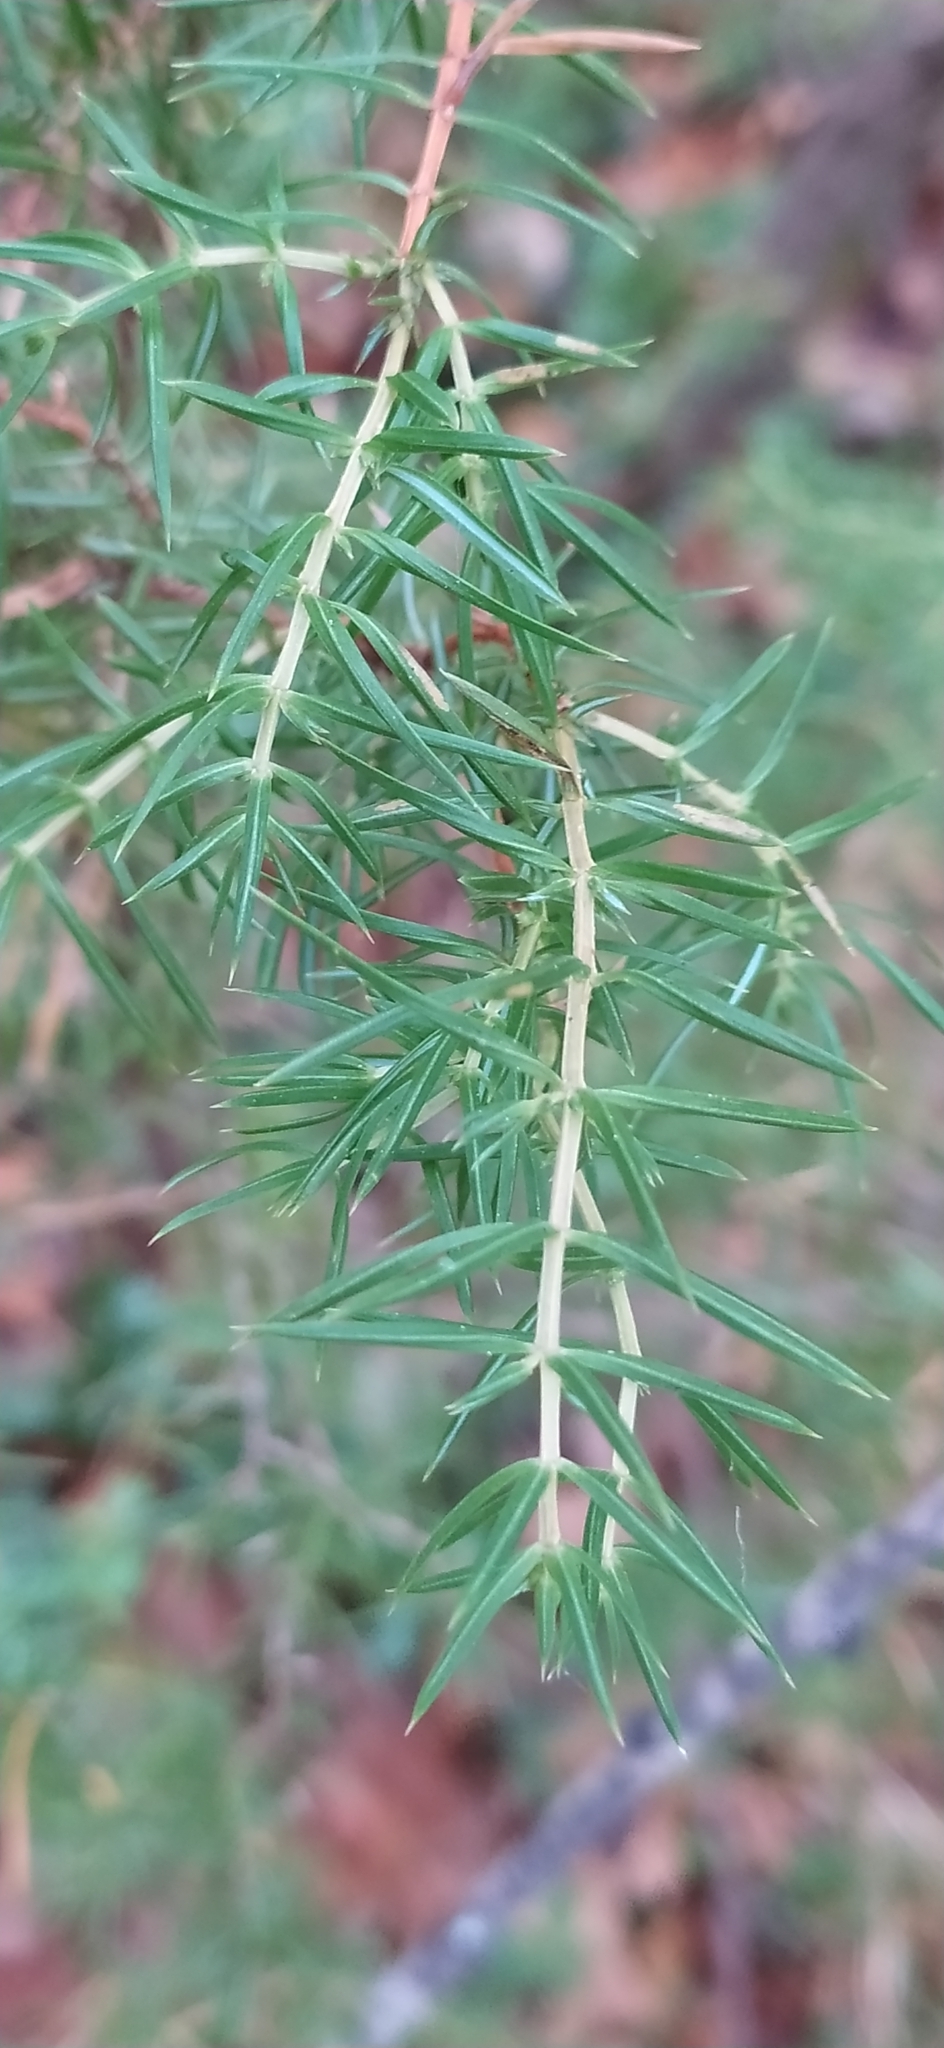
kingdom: Plantae
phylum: Tracheophyta
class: Pinopsida
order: Pinales
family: Cupressaceae
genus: Juniperus
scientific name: Juniperus communis
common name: Common juniper
